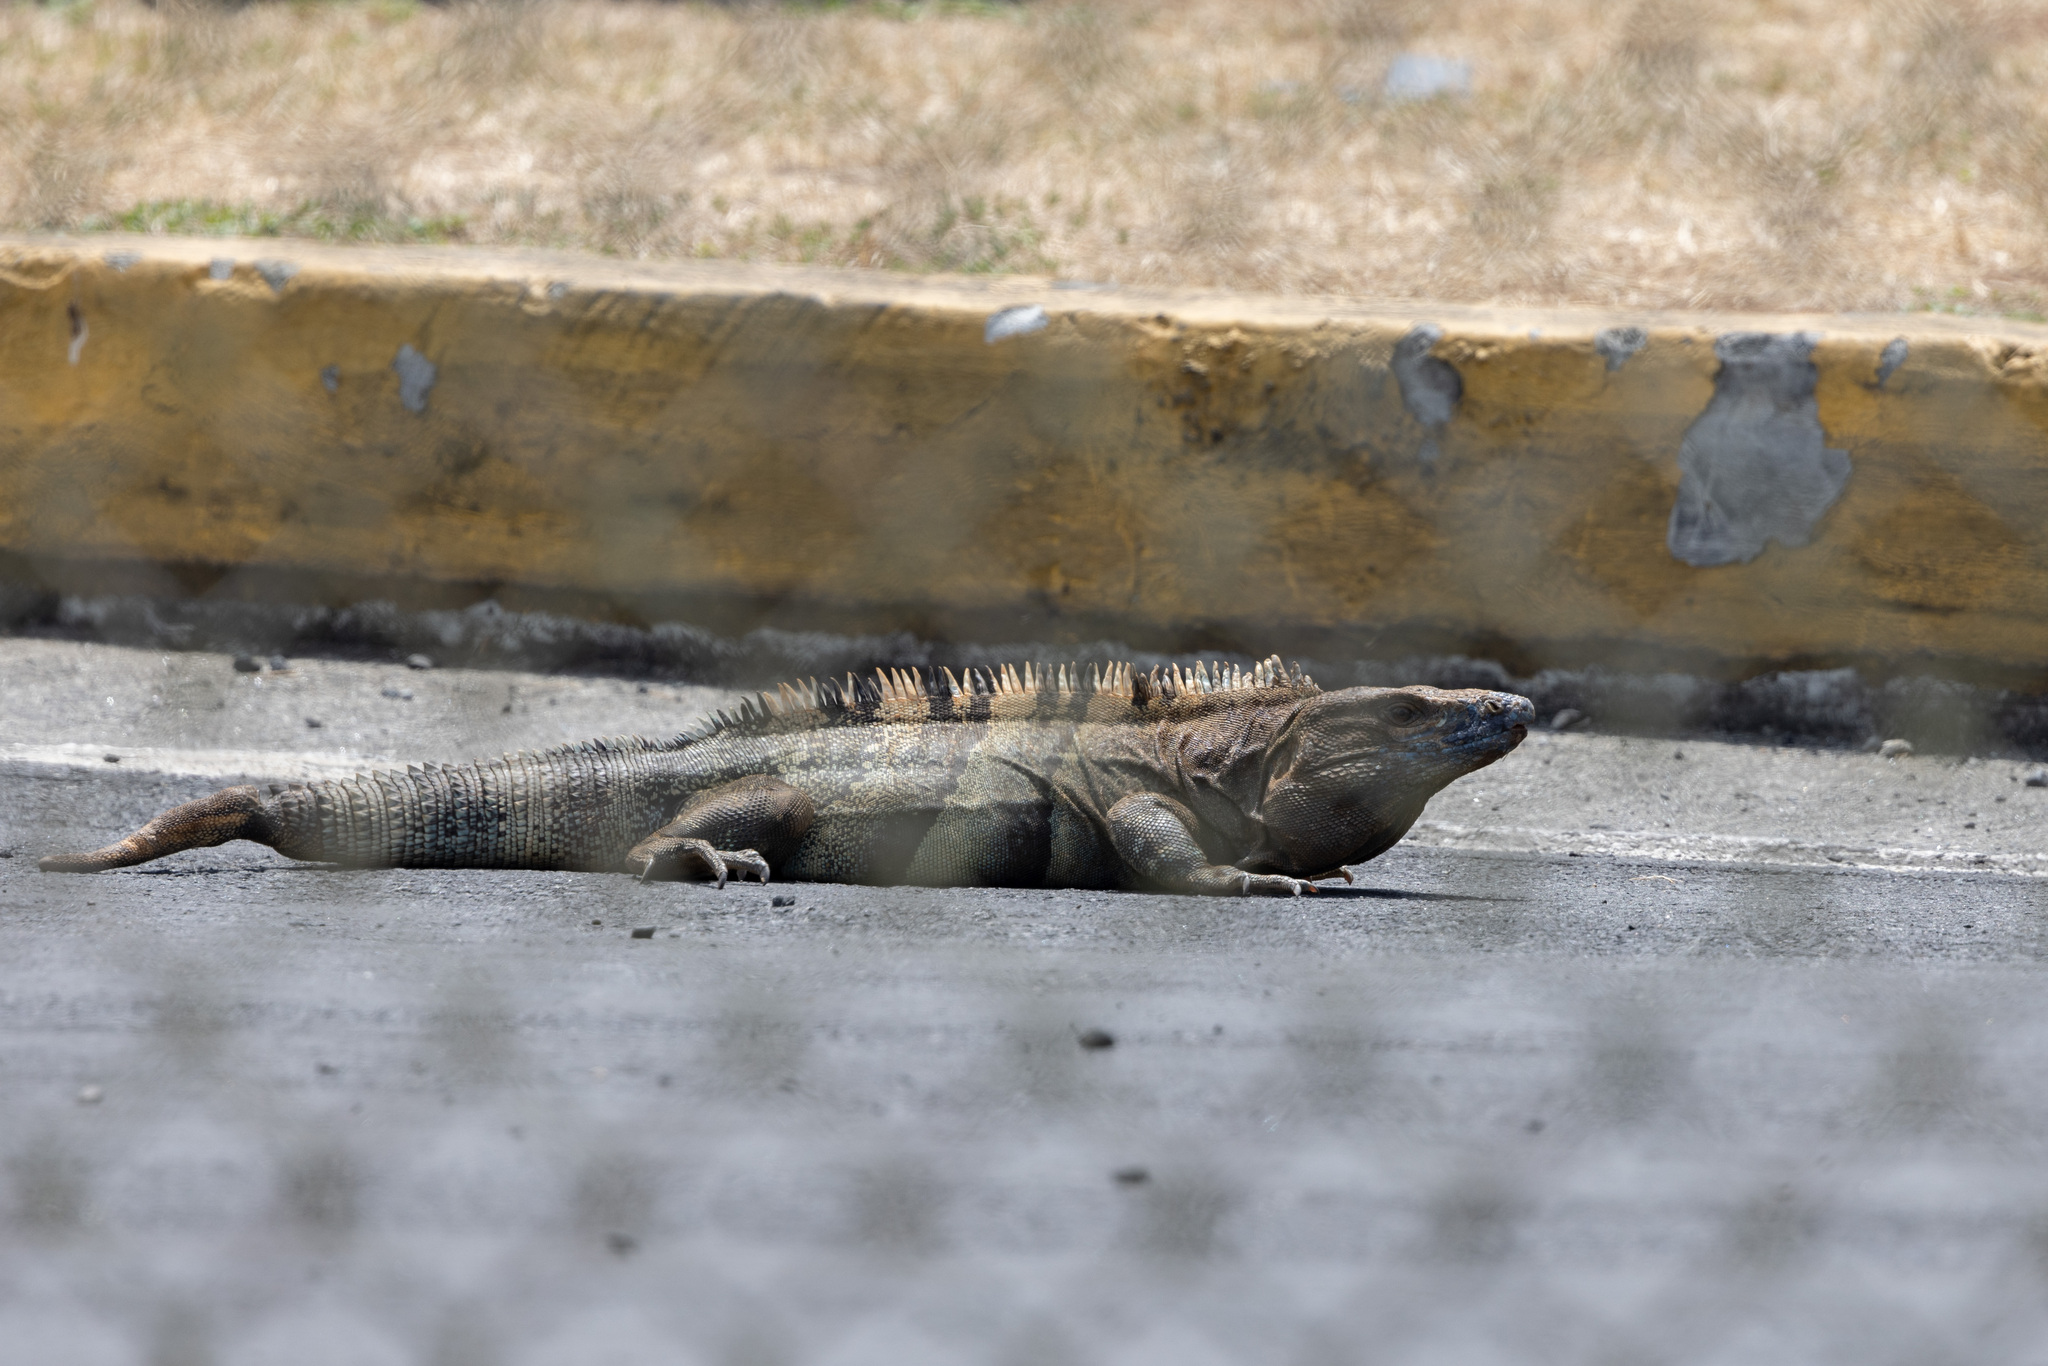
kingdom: Animalia
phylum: Chordata
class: Squamata
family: Iguanidae
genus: Ctenosaura
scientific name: Ctenosaura similis
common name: Black spiny-tailed iguana
